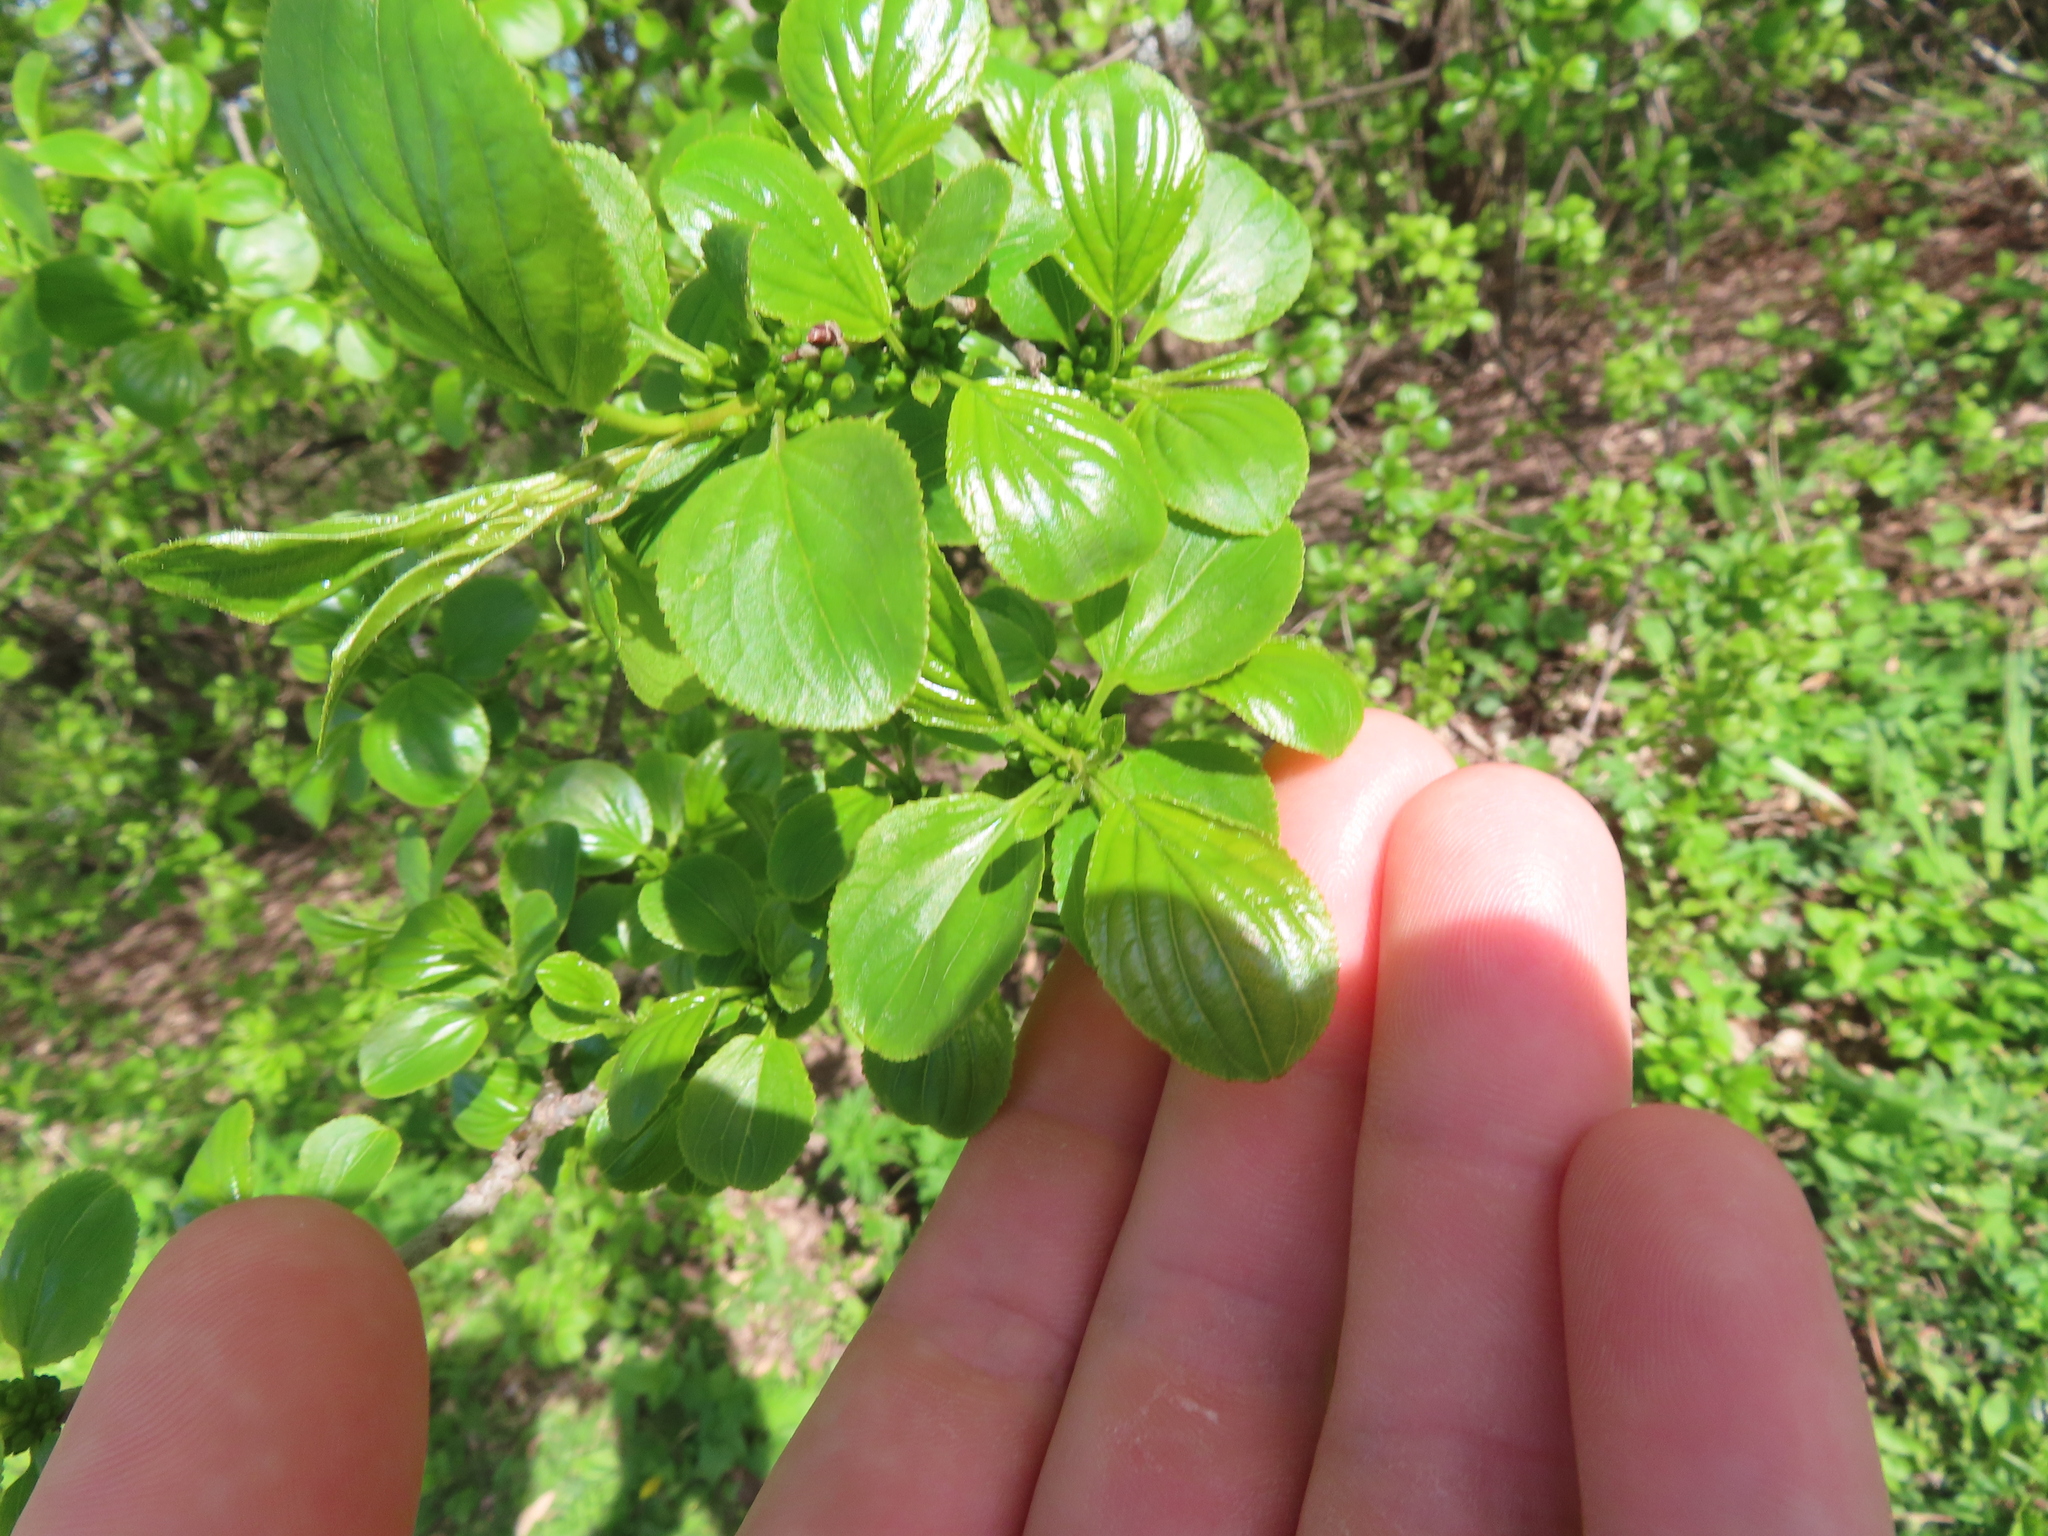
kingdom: Plantae
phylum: Tracheophyta
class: Magnoliopsida
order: Rosales
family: Rhamnaceae
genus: Rhamnus
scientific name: Rhamnus cathartica
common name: Common buckthorn
